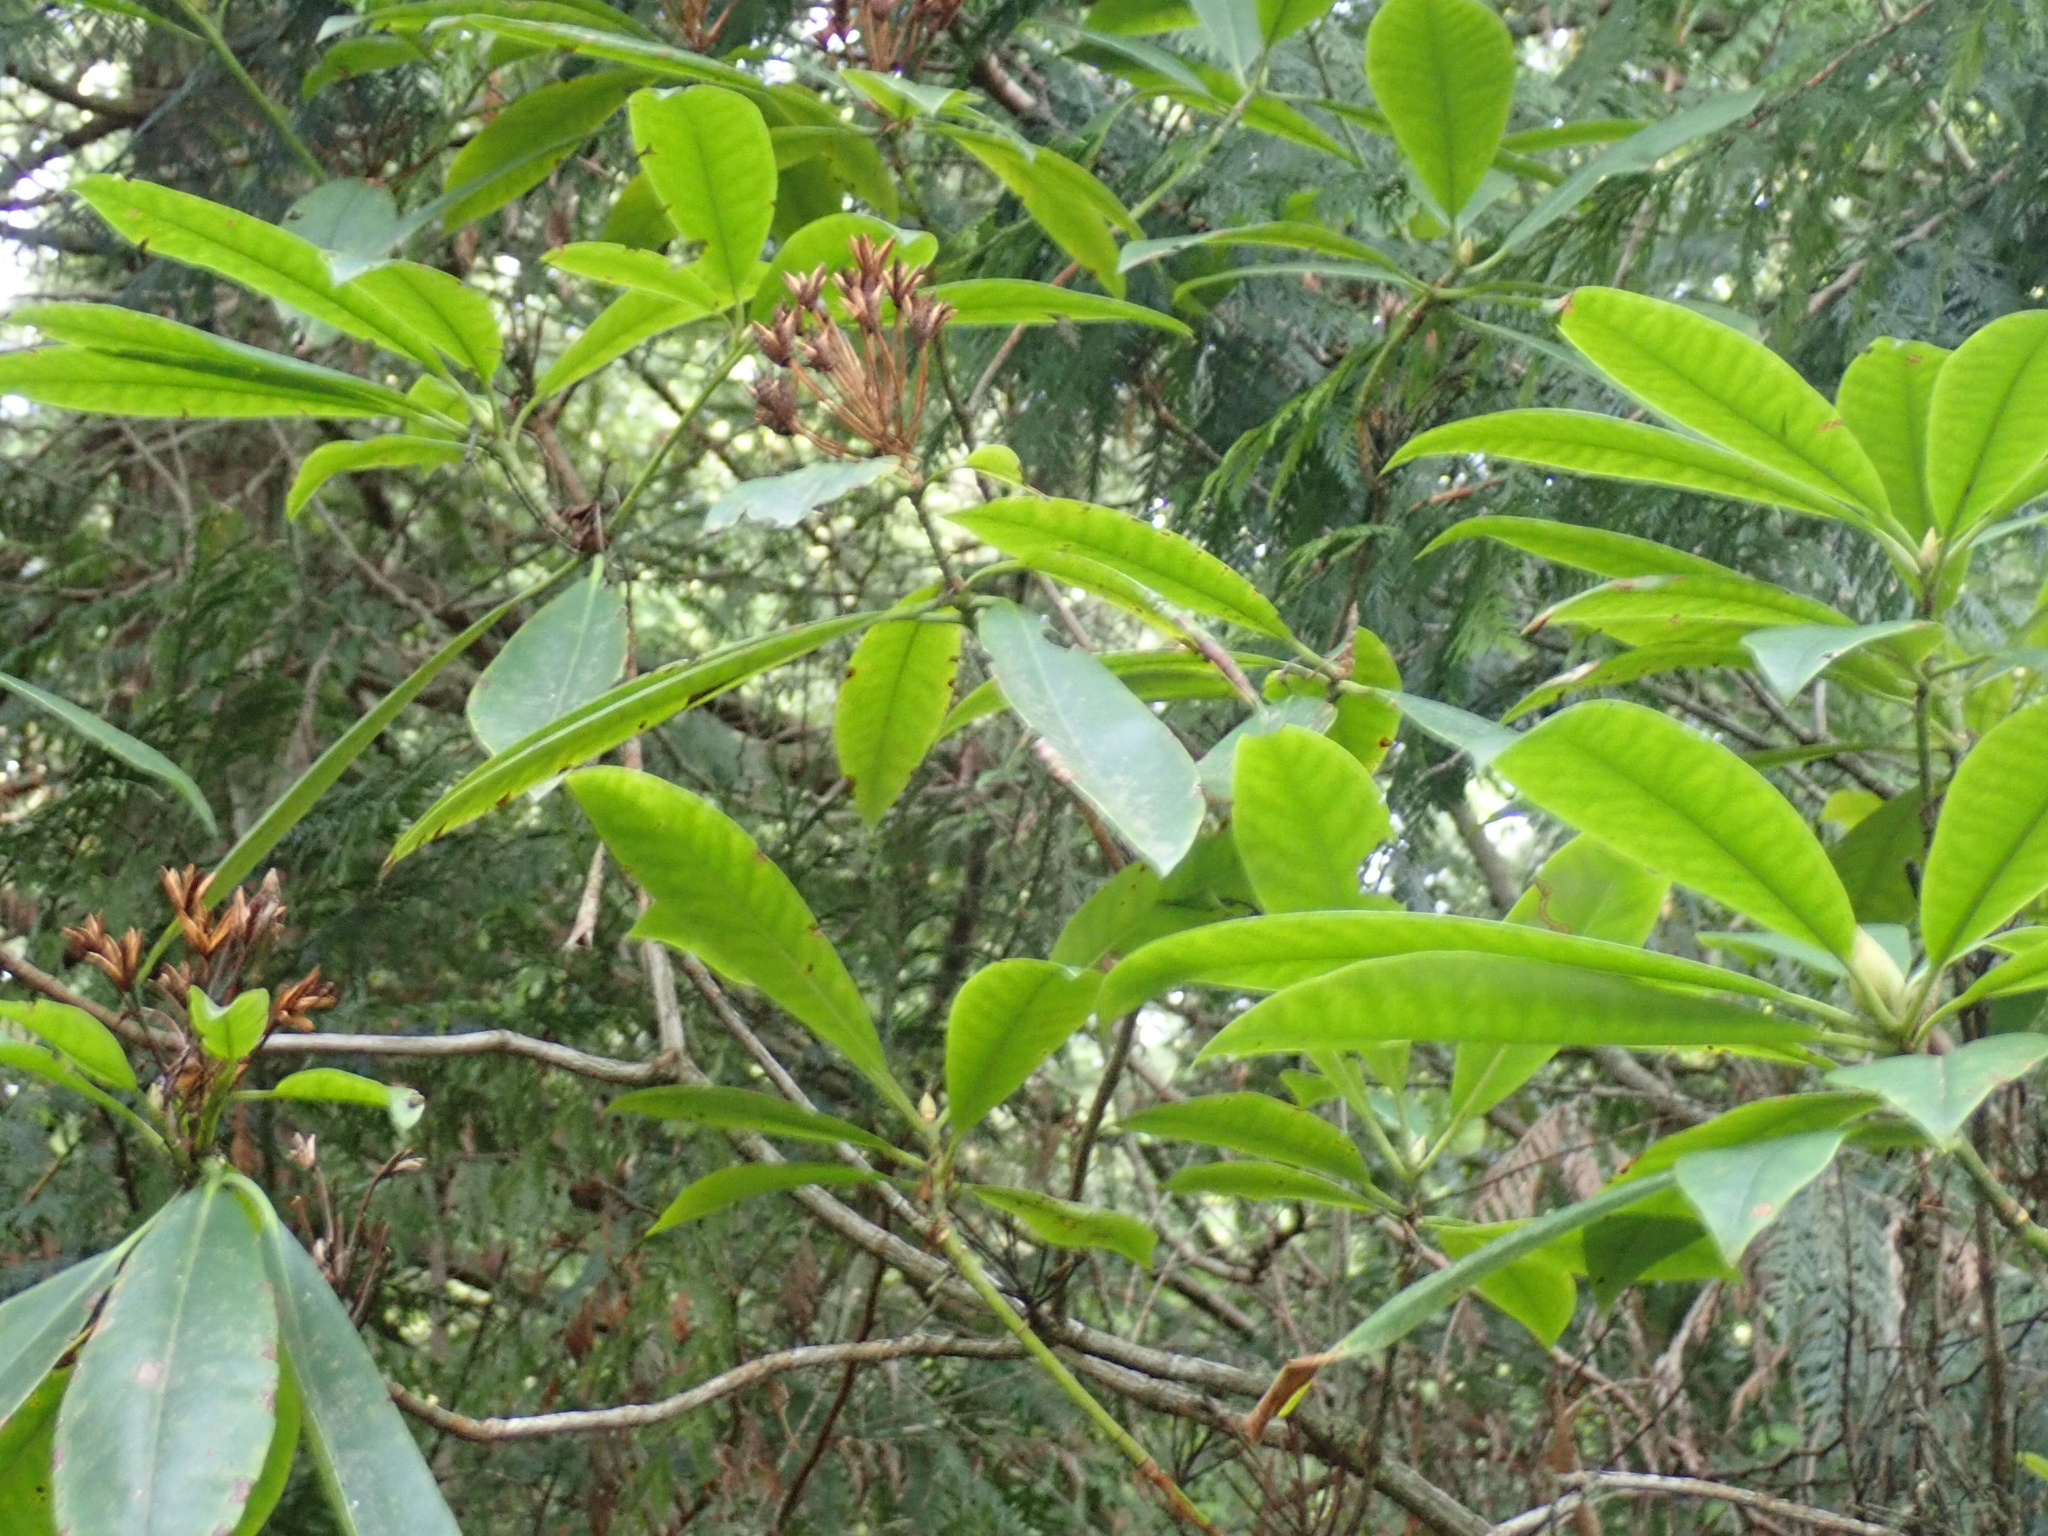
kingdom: Plantae
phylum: Tracheophyta
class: Magnoliopsida
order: Ericales
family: Ericaceae
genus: Rhododendron
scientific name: Rhododendron macrophyllum
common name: California rose bay
